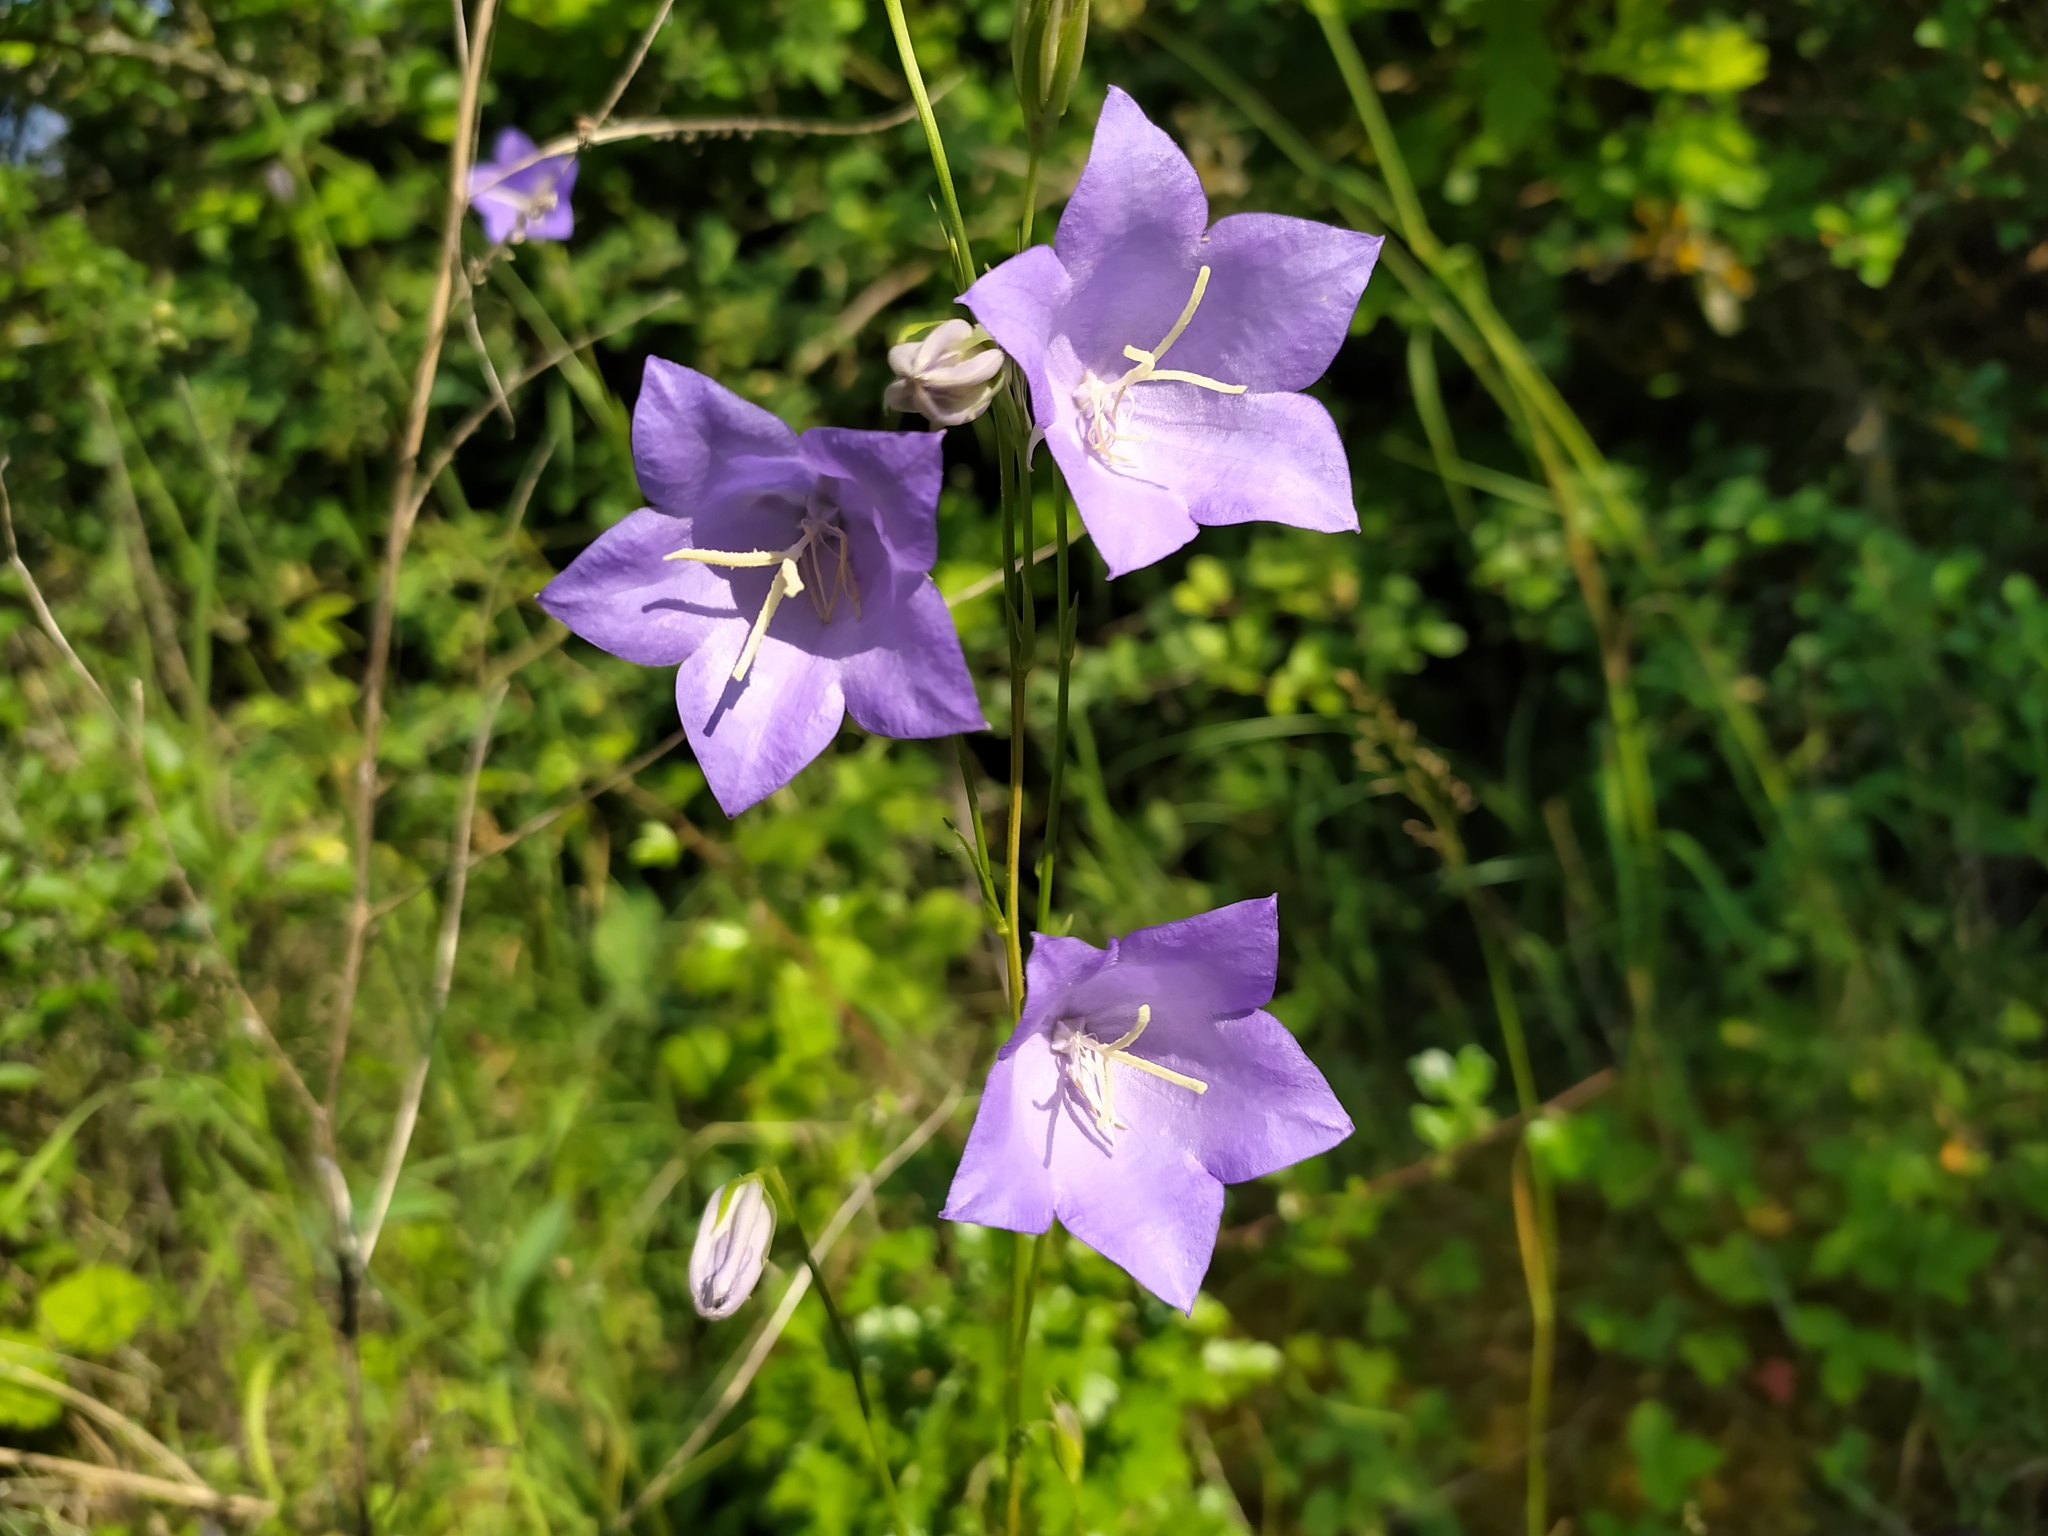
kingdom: Plantae
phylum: Tracheophyta
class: Magnoliopsida
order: Asterales
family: Campanulaceae
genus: Campanula
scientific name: Campanula persicifolia
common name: Peach-leaved bellflower
